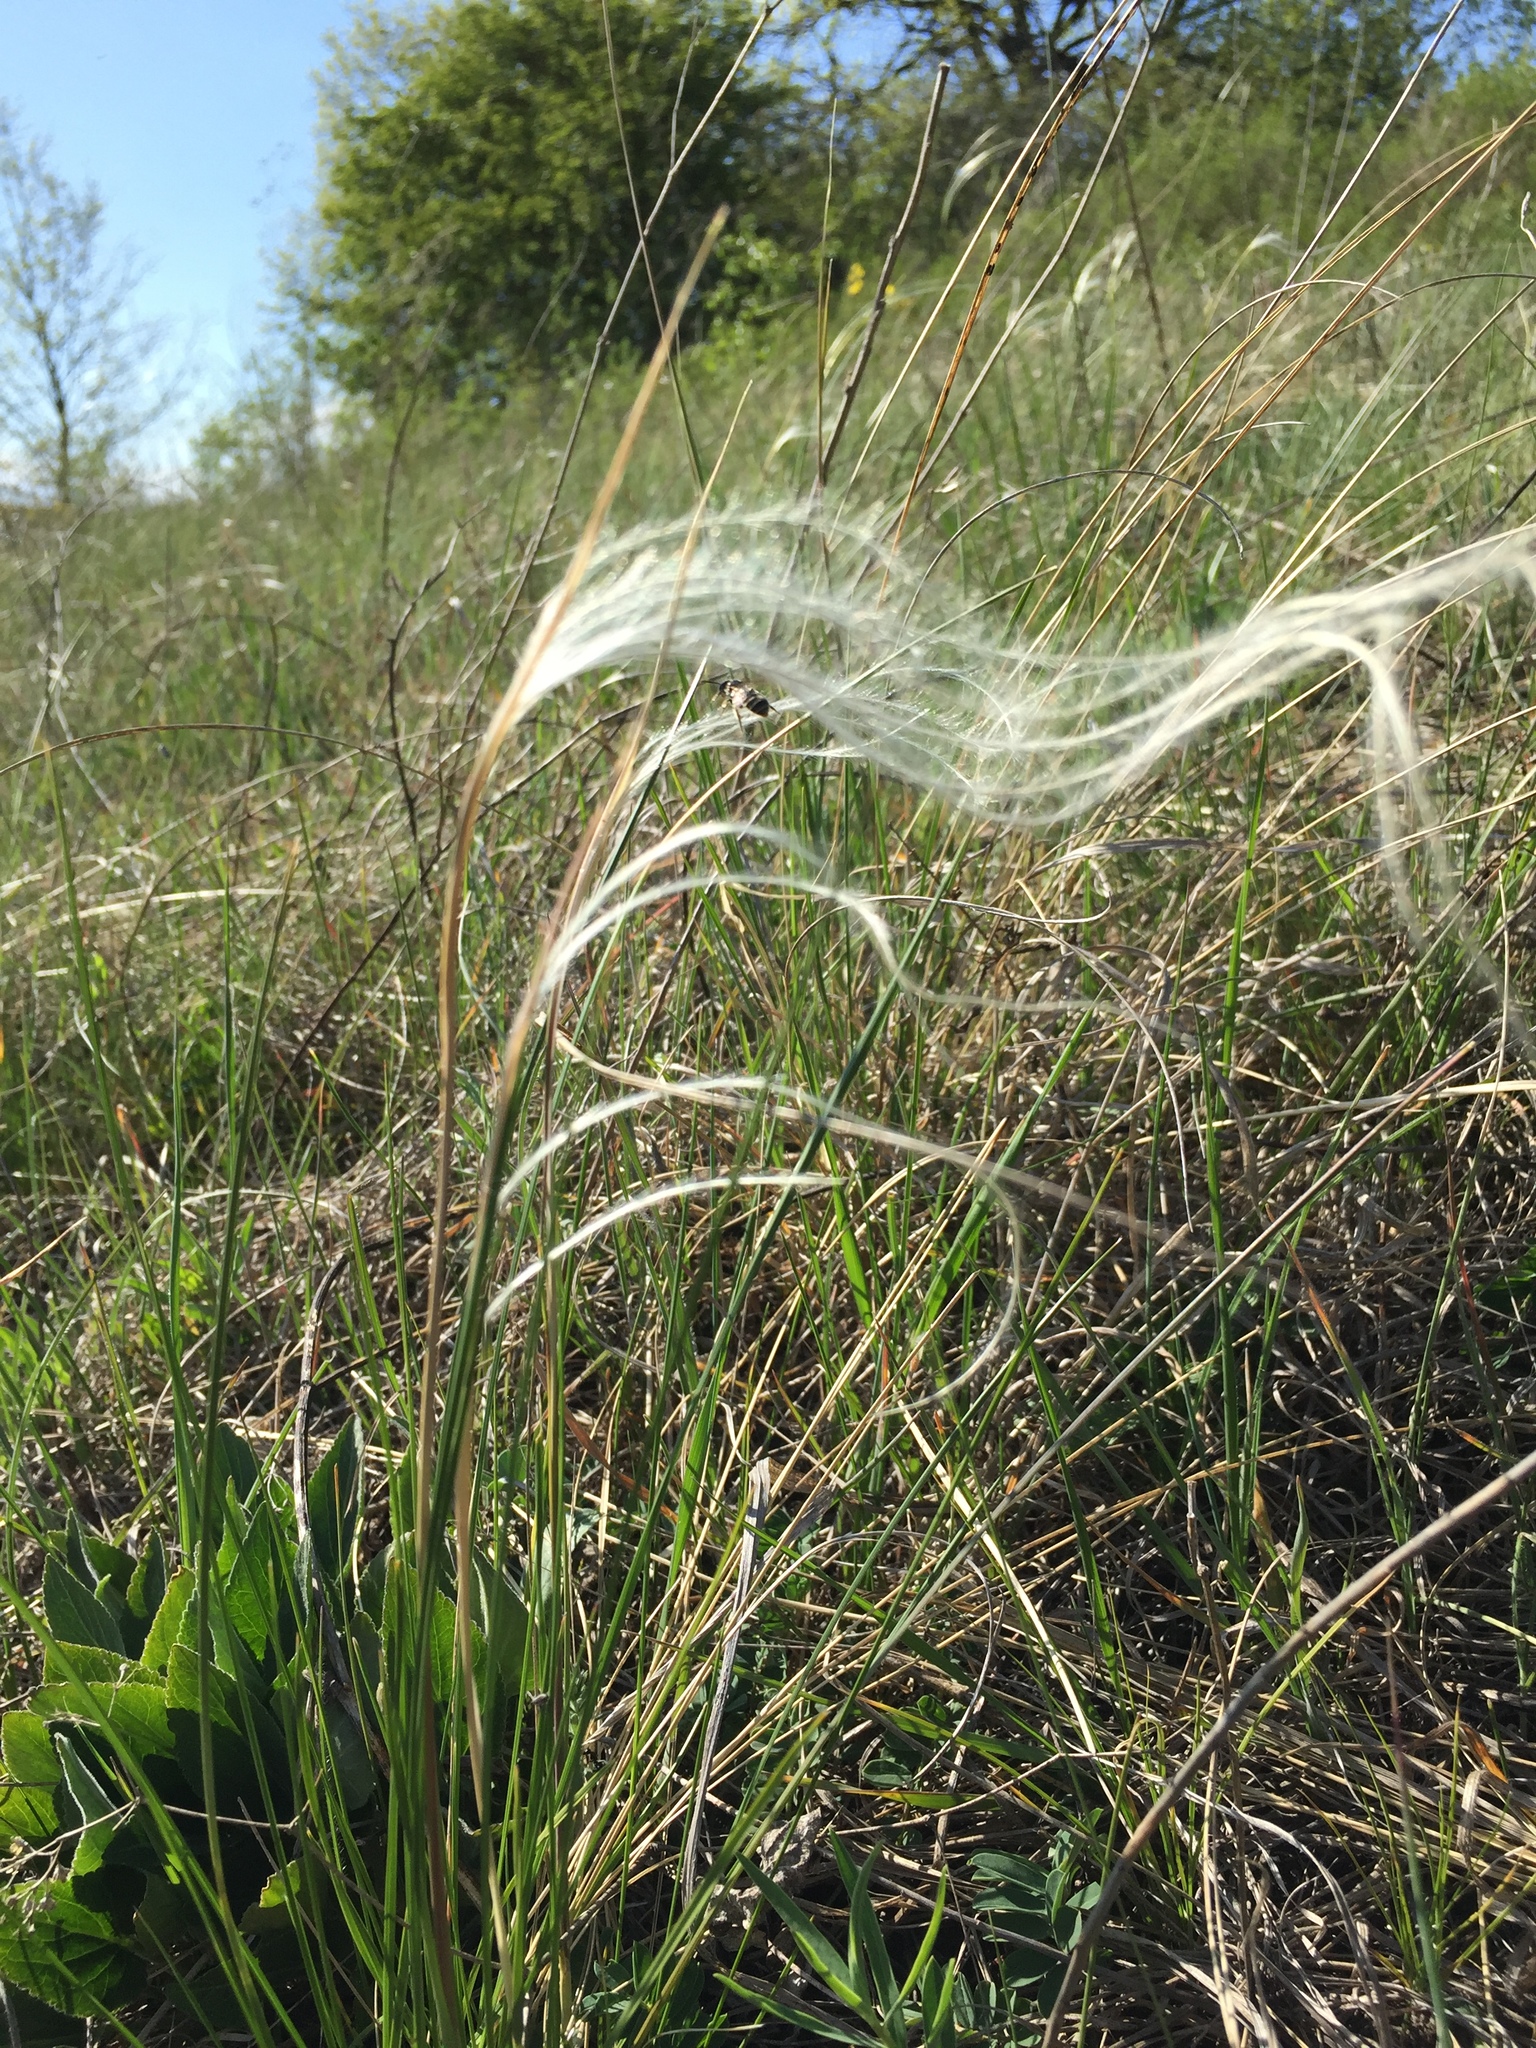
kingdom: Plantae
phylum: Tracheophyta
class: Liliopsida
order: Poales
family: Poaceae
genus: Stipa
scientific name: Stipa pennata
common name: European feather grass
